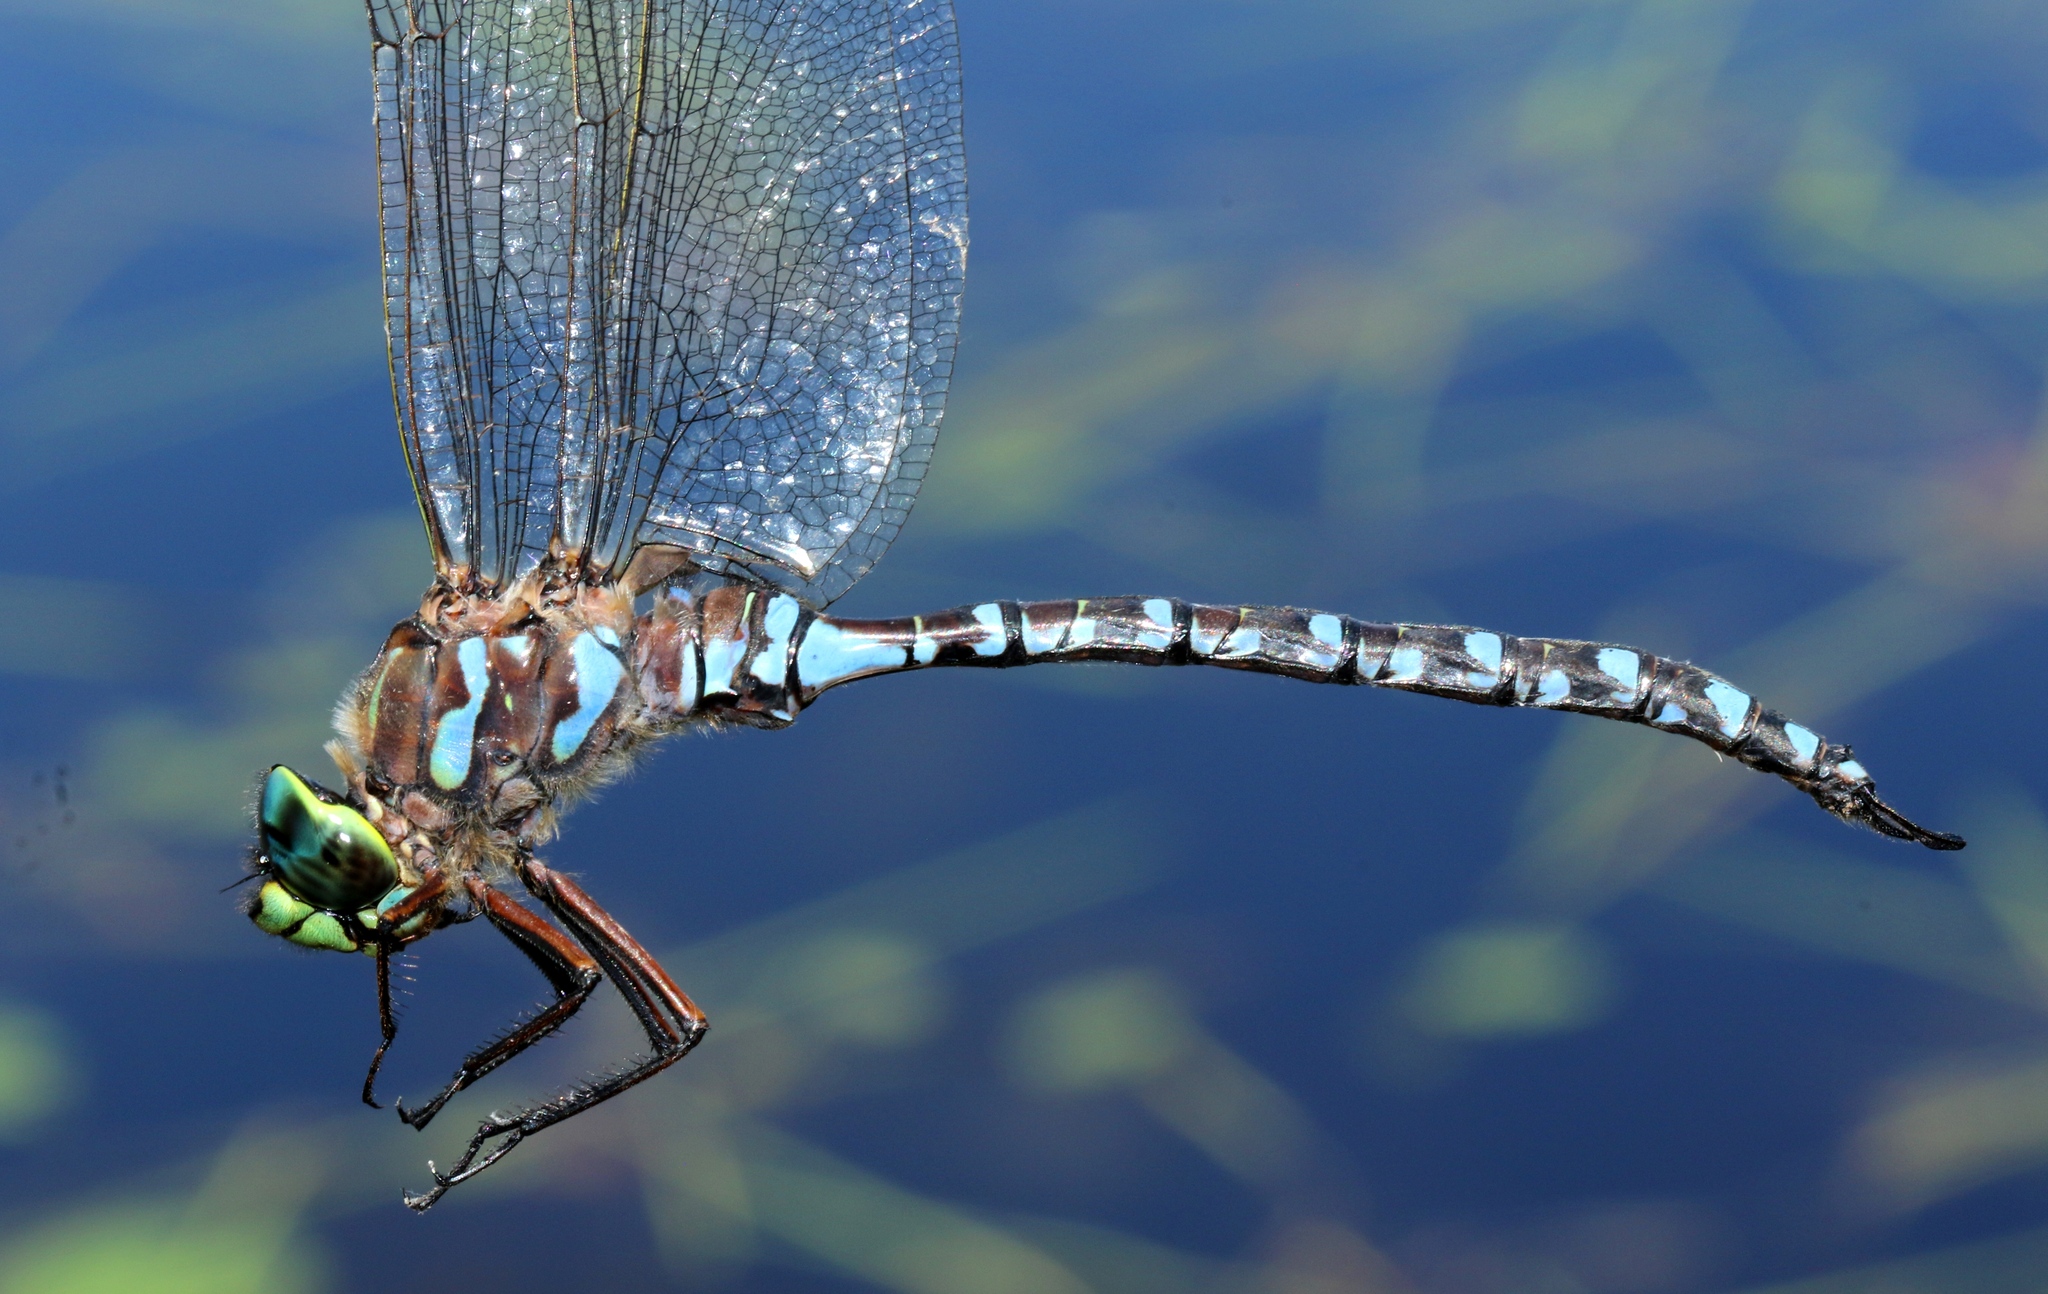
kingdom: Animalia
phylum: Arthropoda
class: Insecta
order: Odonata
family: Aeshnidae
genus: Aeshna
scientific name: Aeshna eremita
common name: Lake darner
